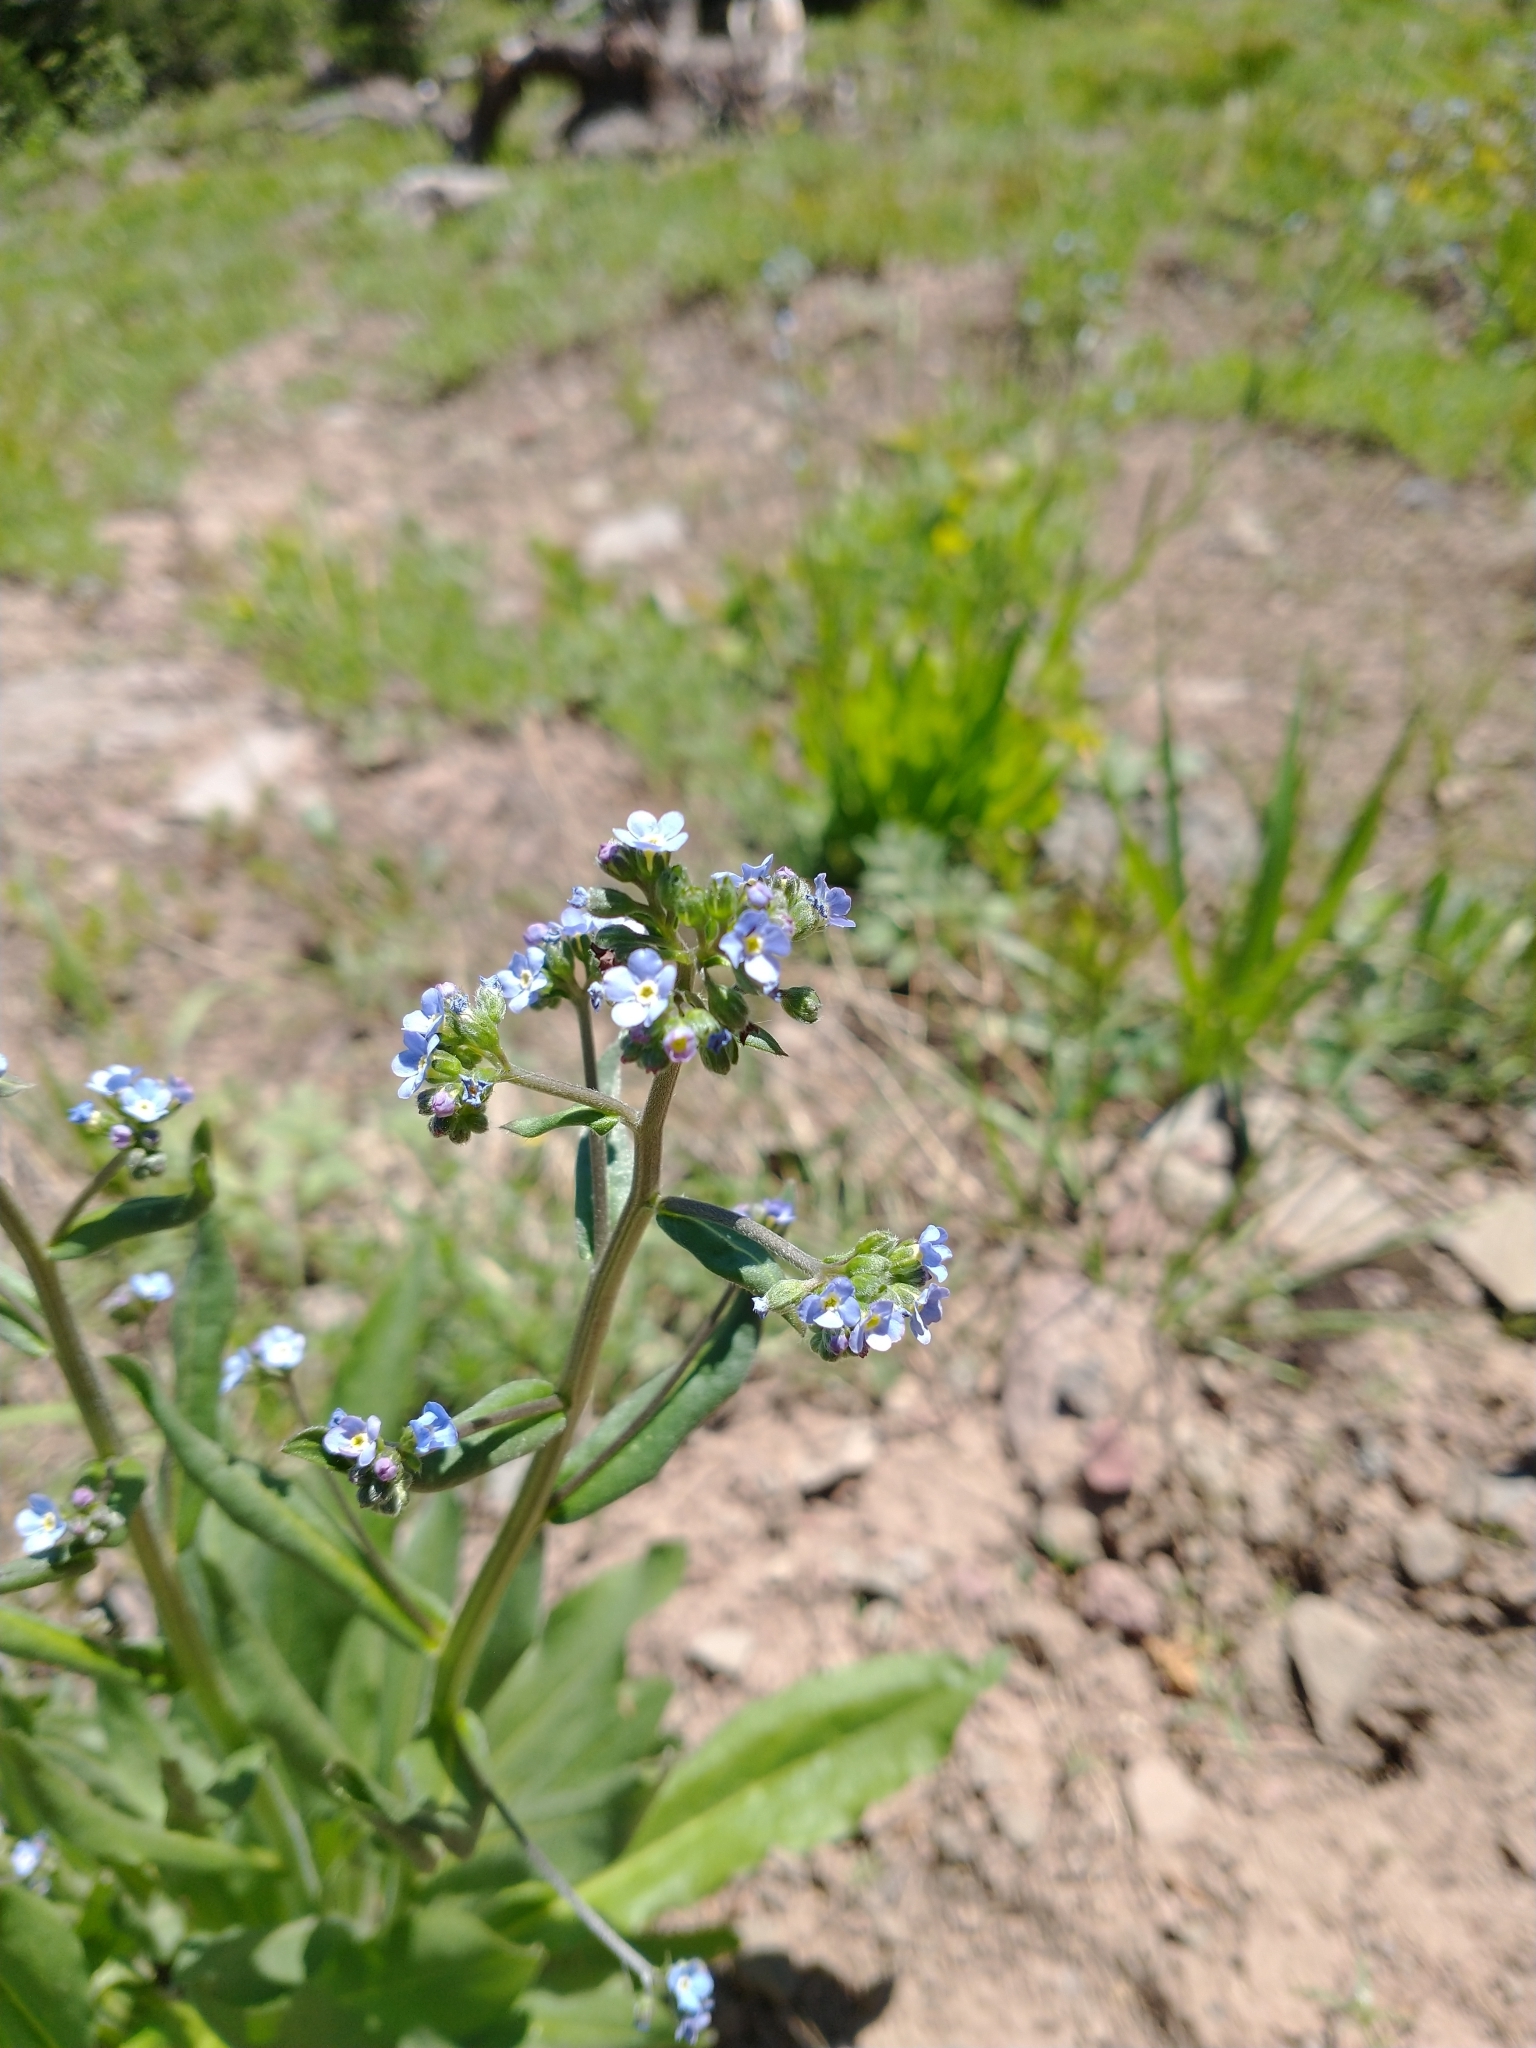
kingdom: Plantae
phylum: Tracheophyta
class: Magnoliopsida
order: Boraginales
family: Boraginaceae
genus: Hackelia
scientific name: Hackelia micrantha
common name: Meadow stickseed
